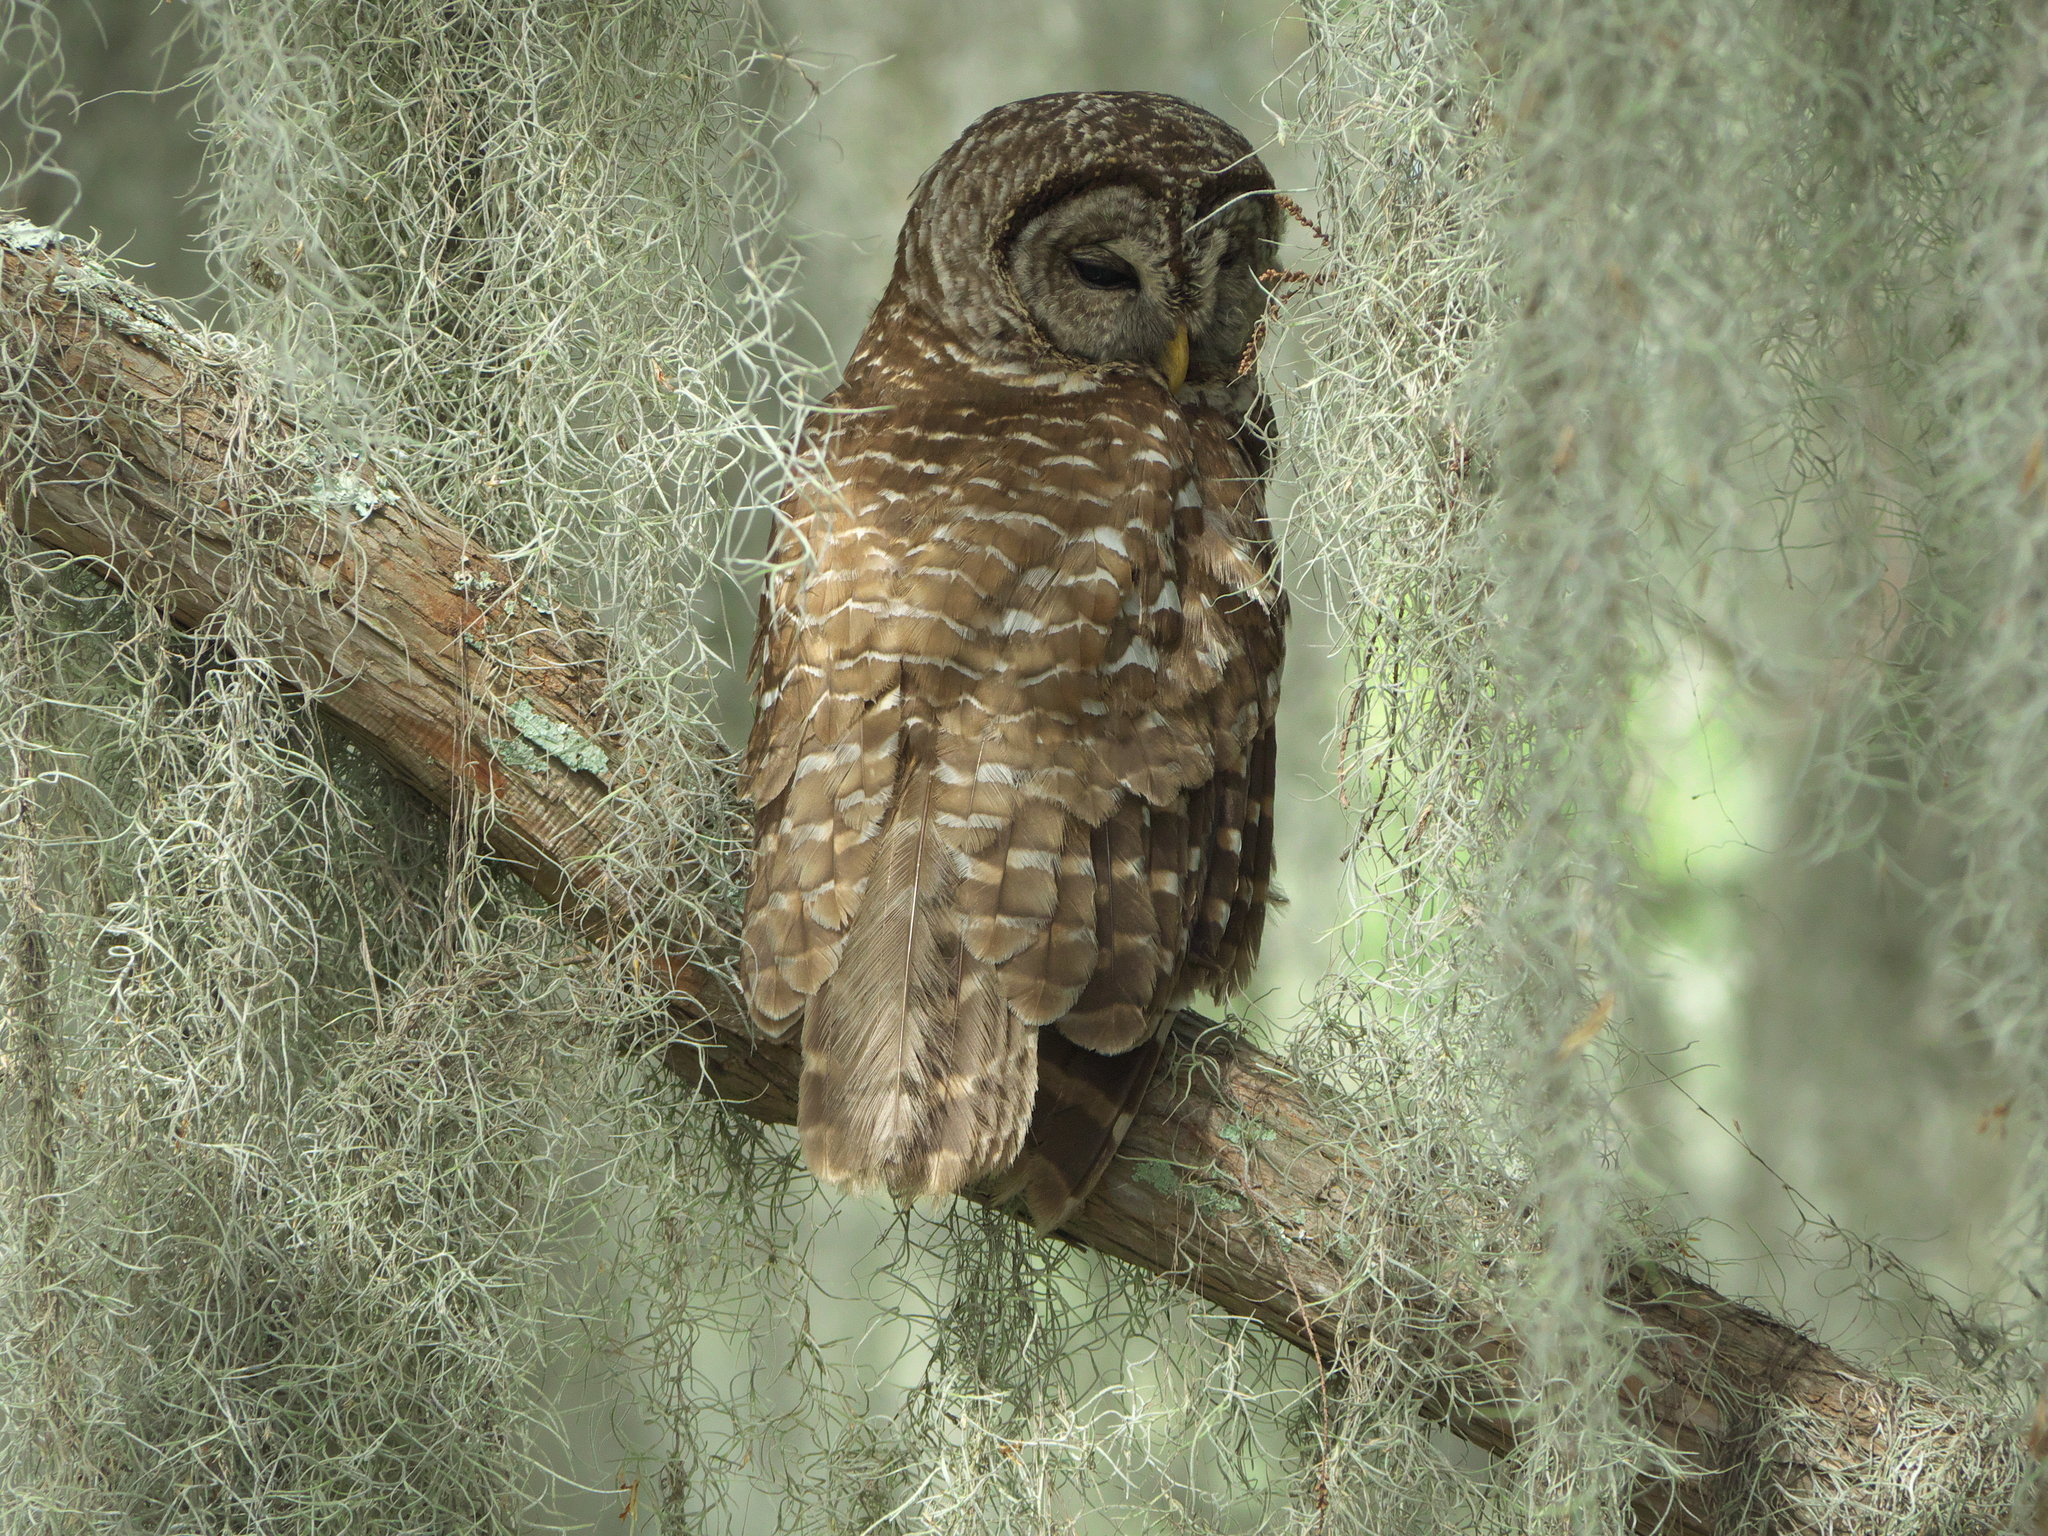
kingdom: Animalia
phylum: Chordata
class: Aves
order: Strigiformes
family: Strigidae
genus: Strix
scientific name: Strix varia
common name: Barred owl
